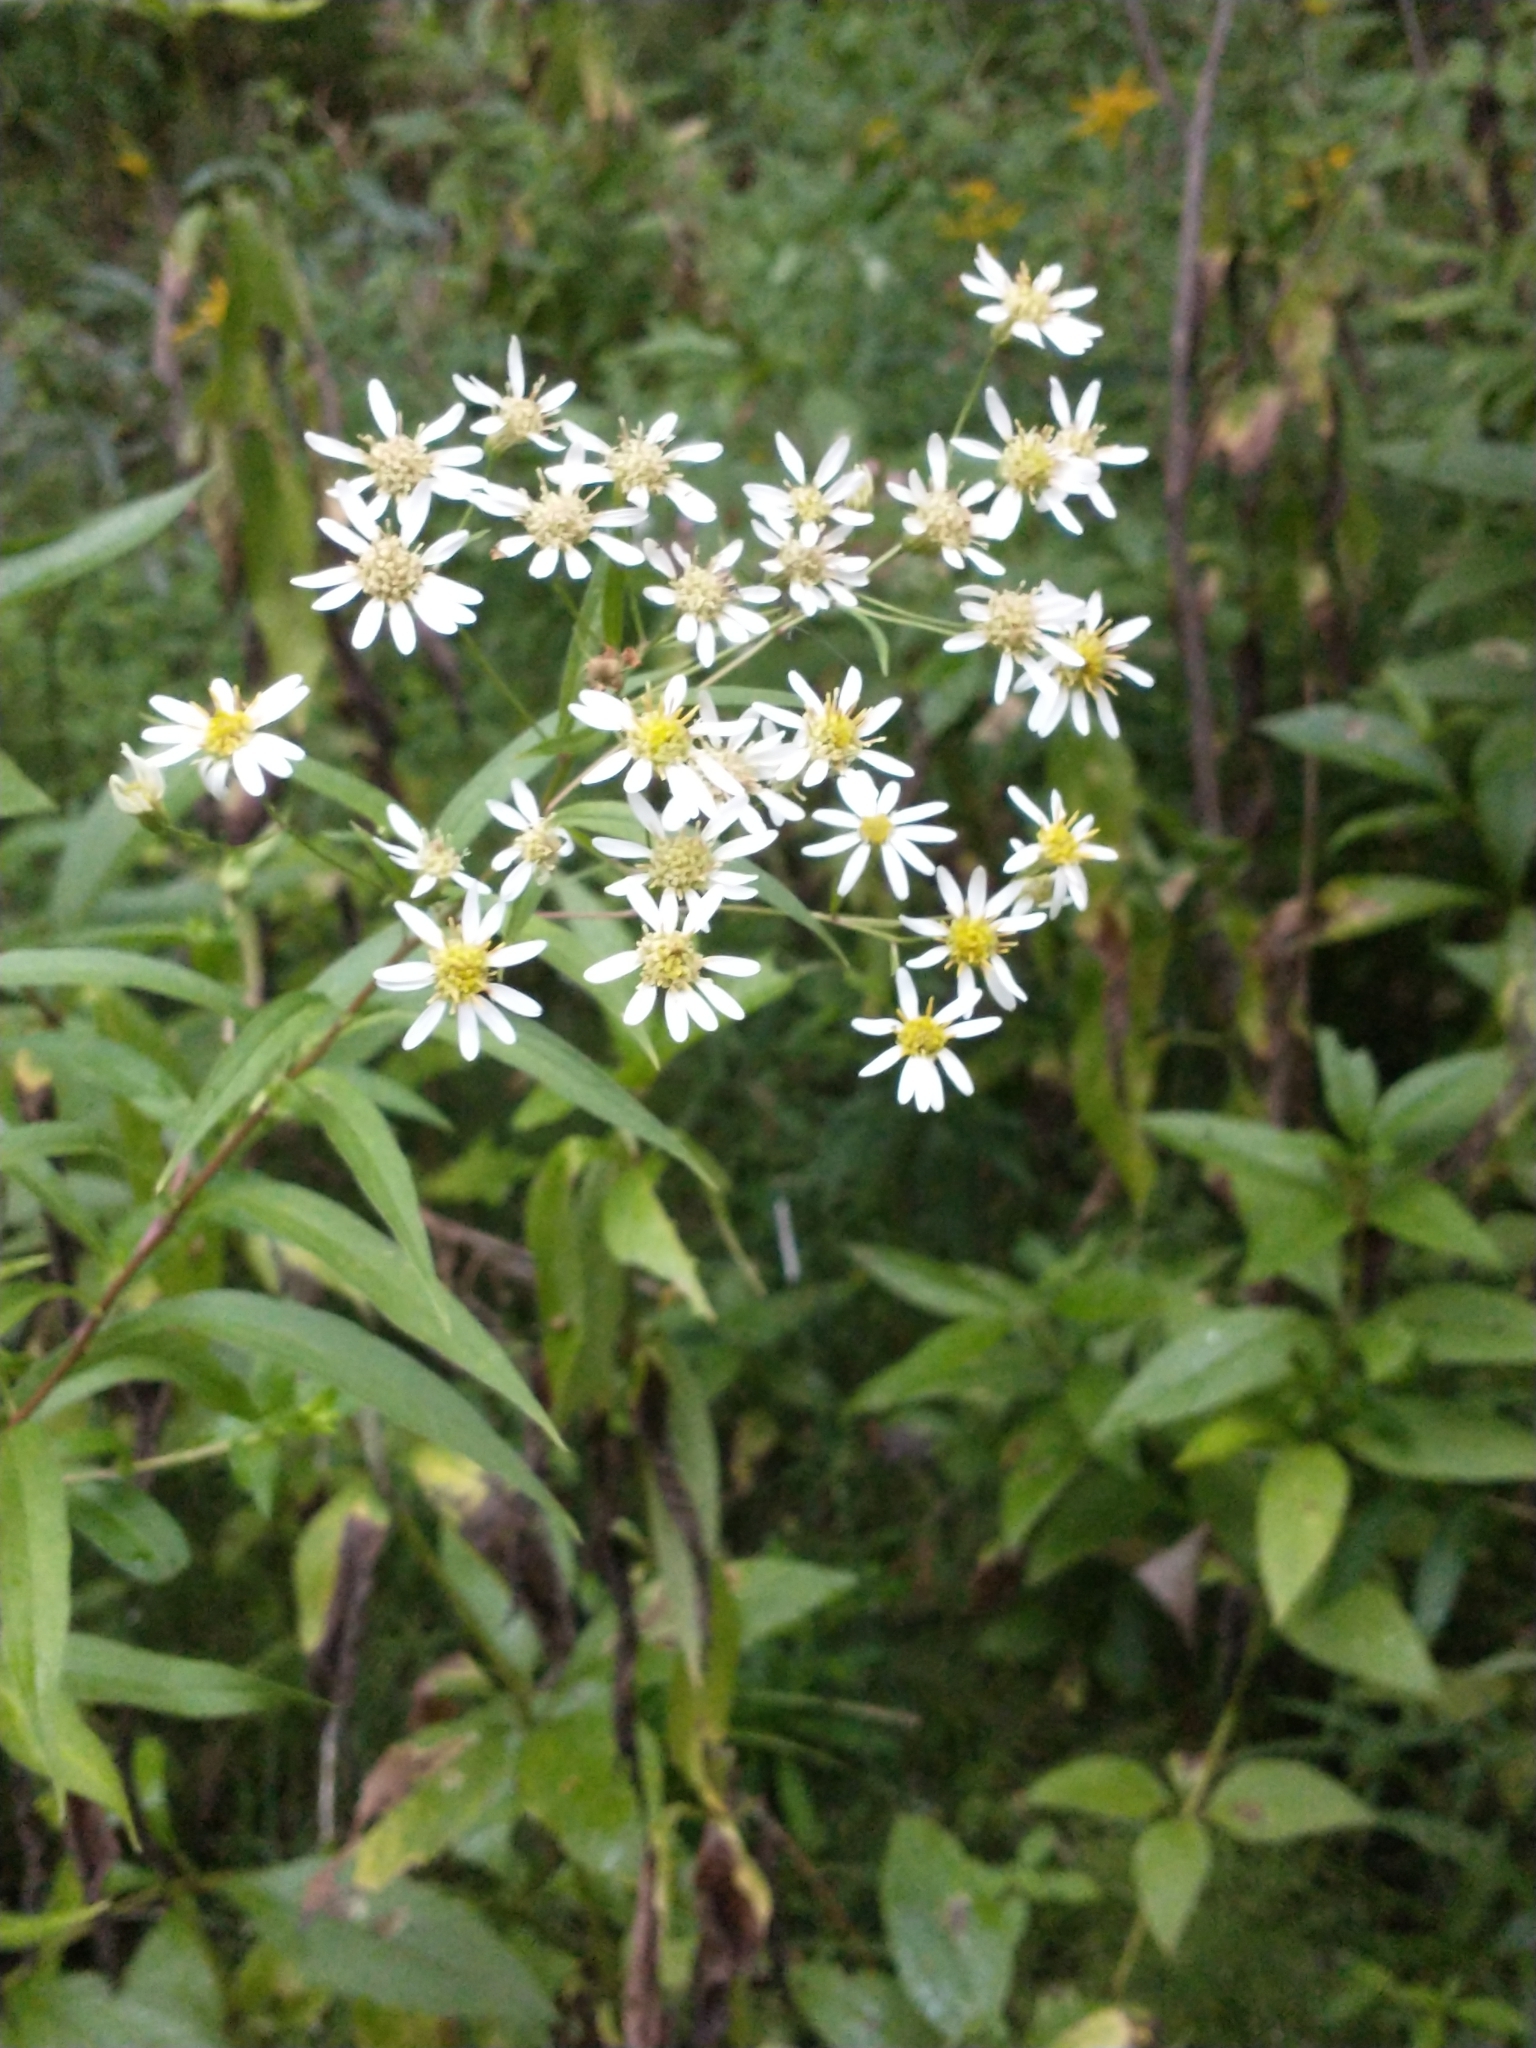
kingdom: Plantae
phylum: Tracheophyta
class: Magnoliopsida
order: Asterales
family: Asteraceae
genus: Doellingeria
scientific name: Doellingeria umbellata
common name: Flat-top white aster
